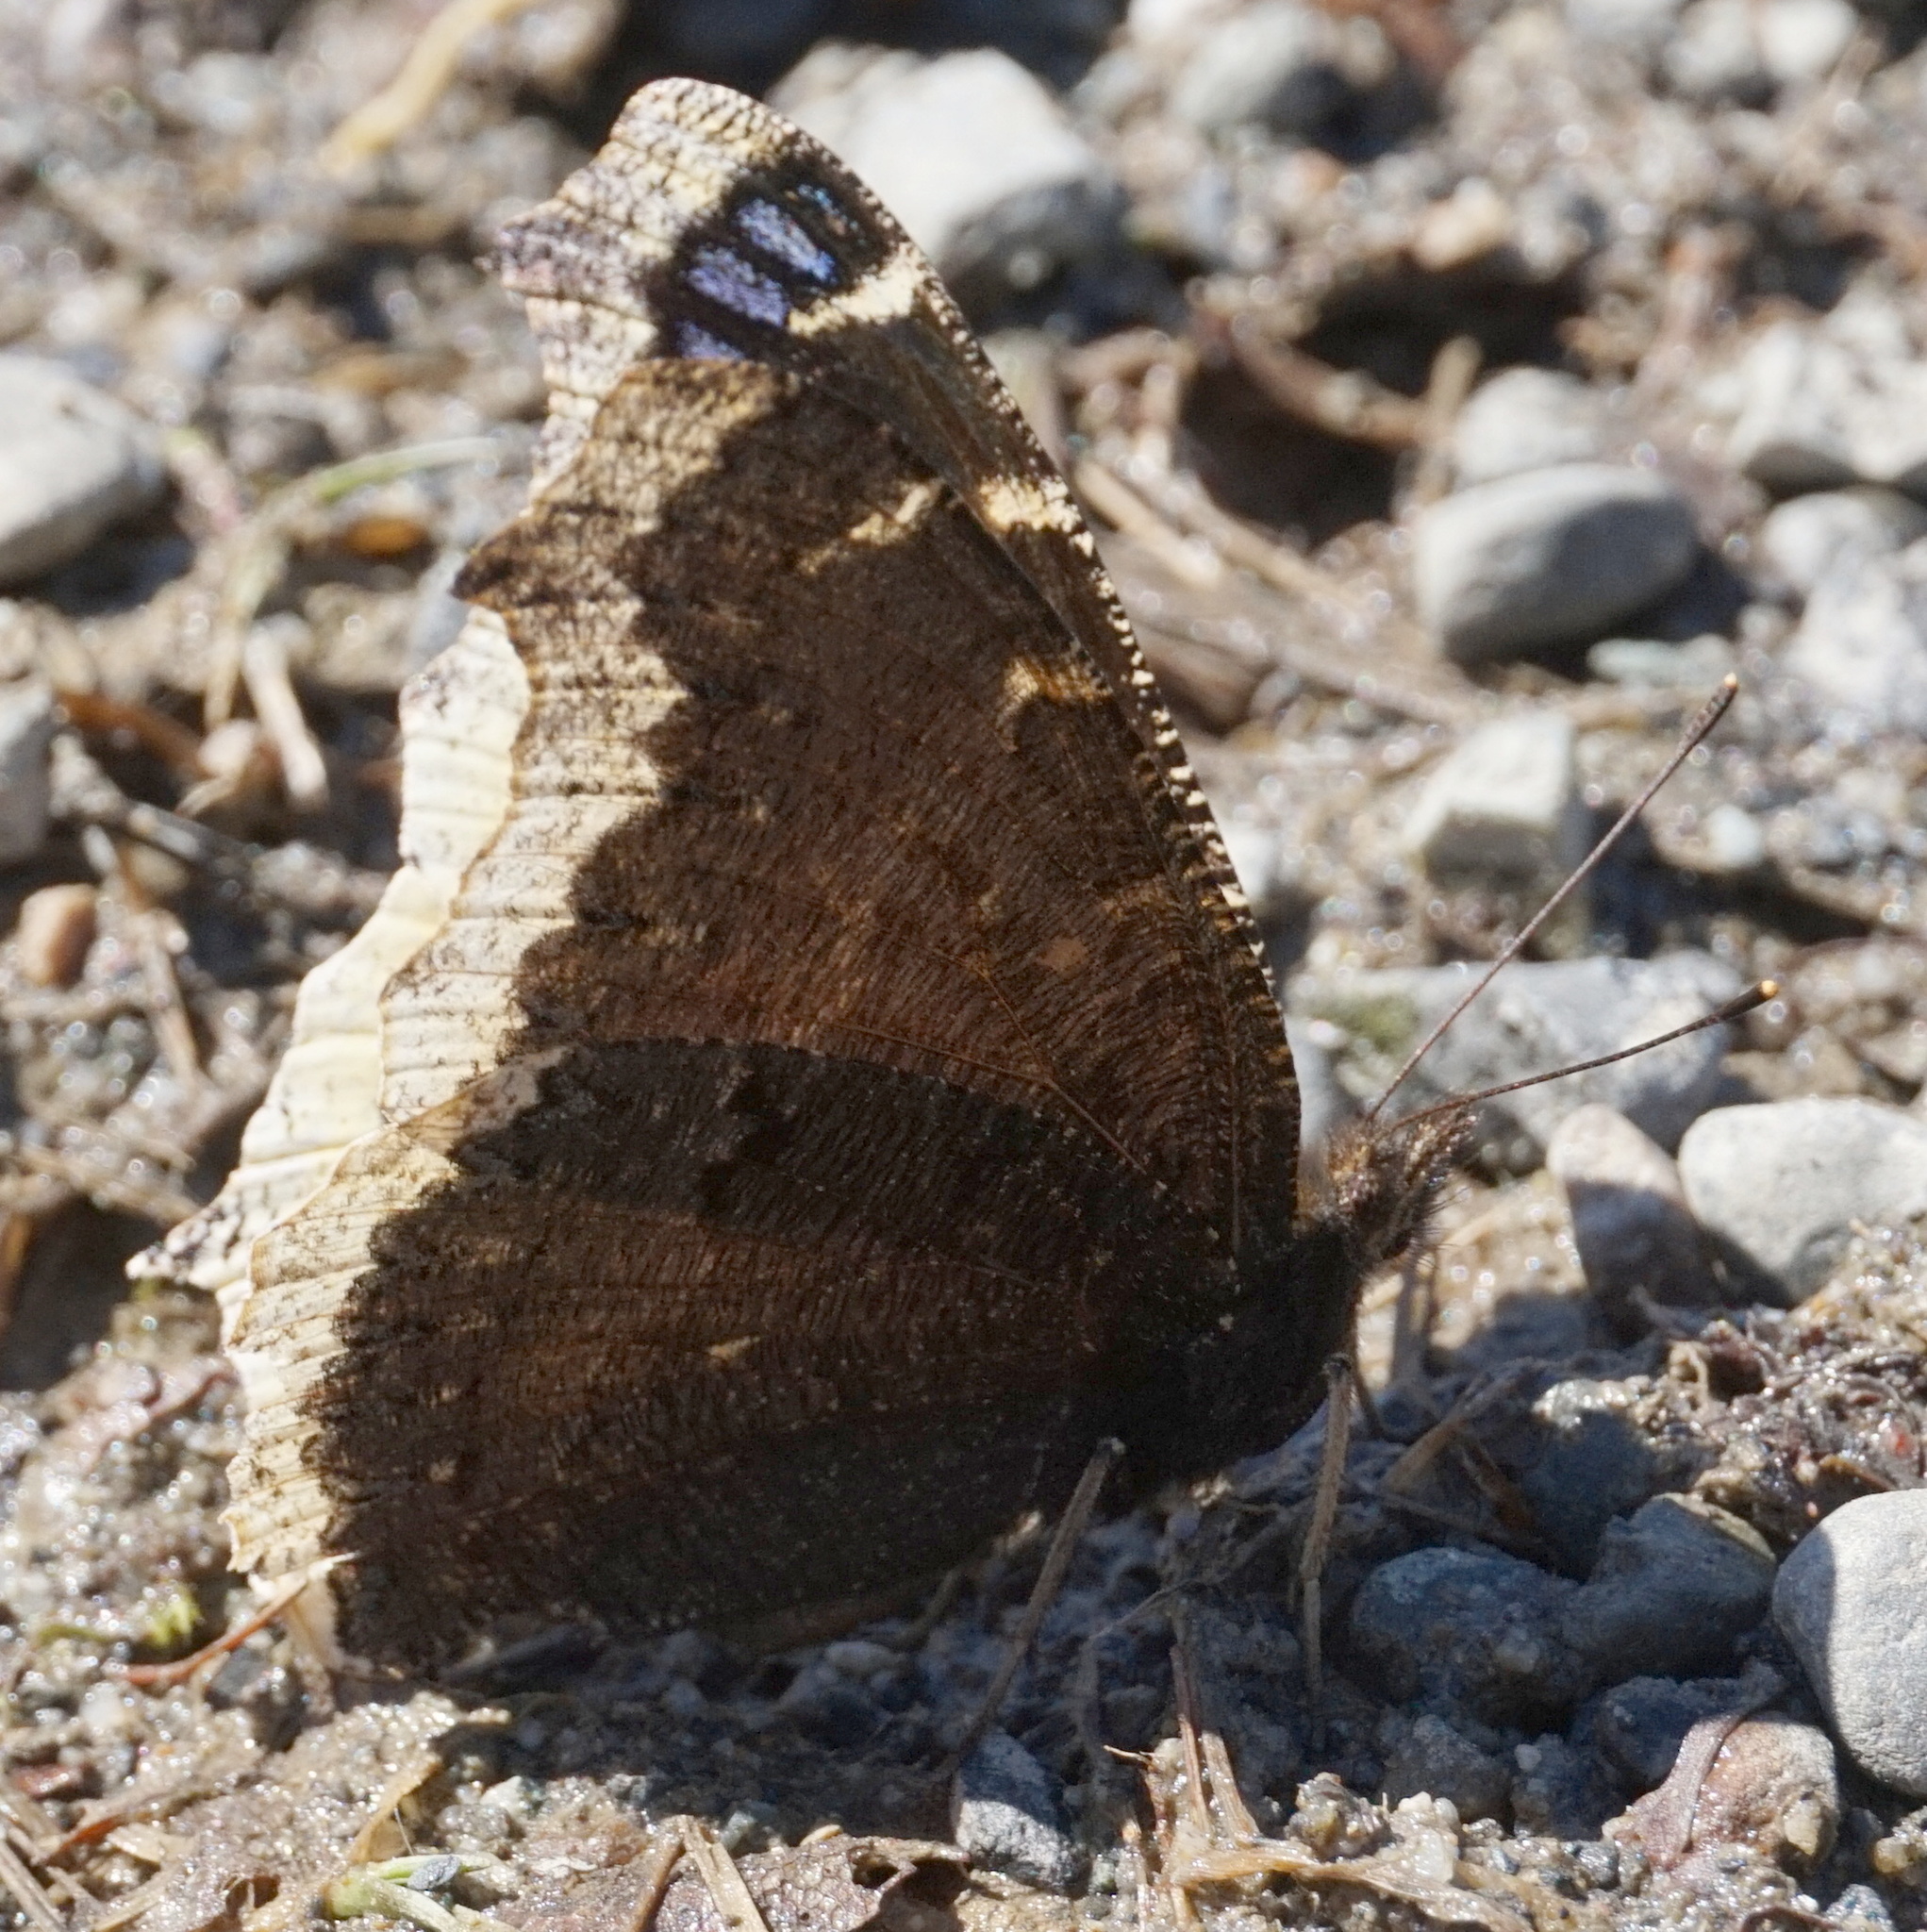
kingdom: Animalia
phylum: Arthropoda
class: Insecta
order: Lepidoptera
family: Nymphalidae
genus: Nymphalis
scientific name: Nymphalis antiopa
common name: Camberwell beauty
